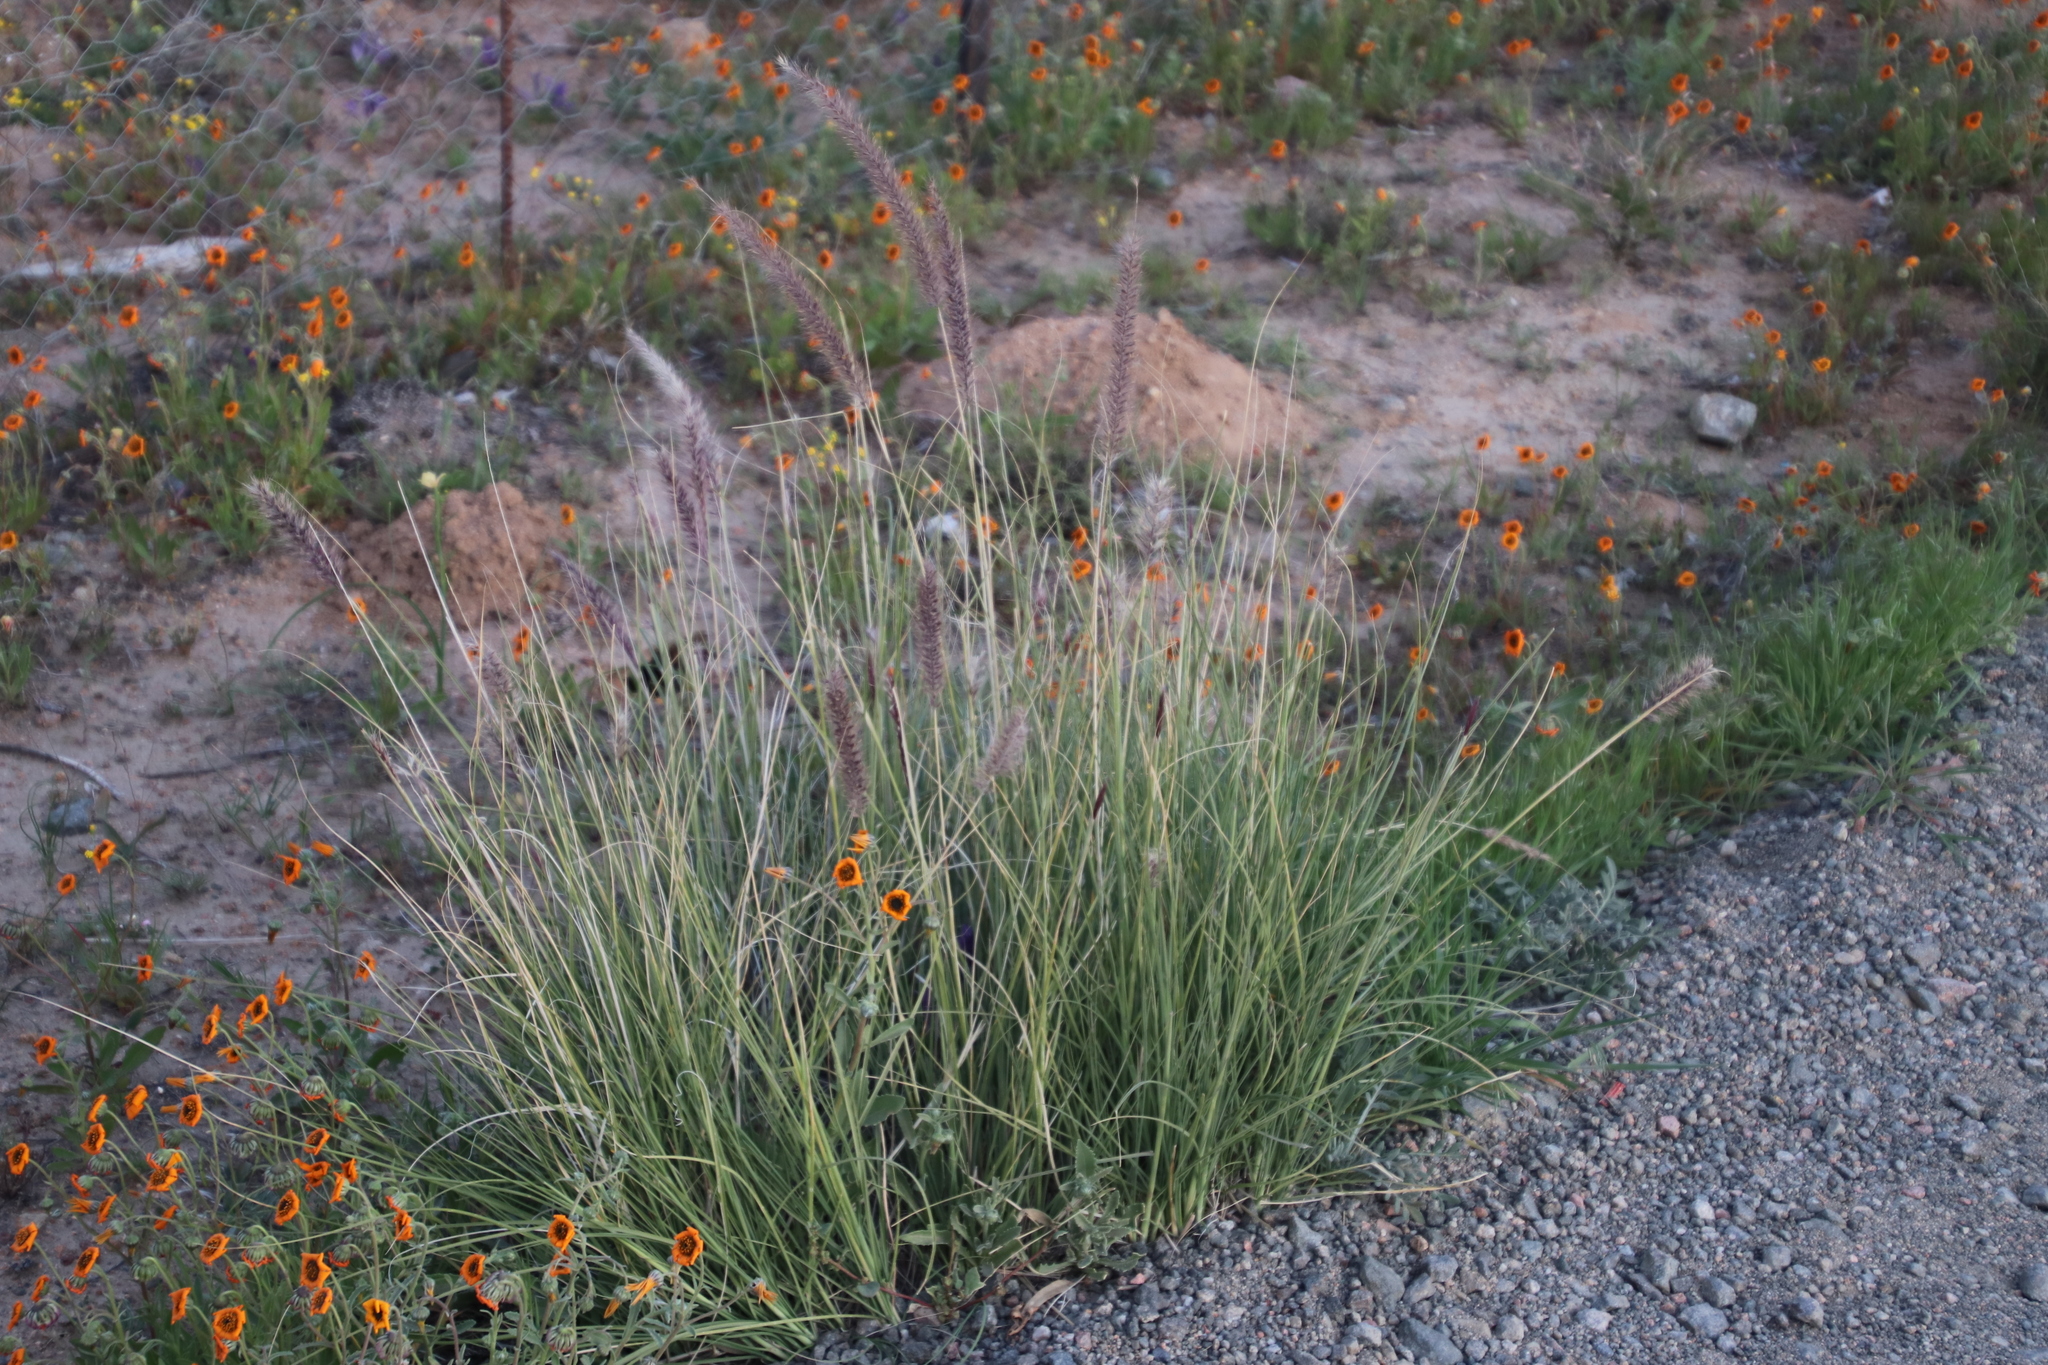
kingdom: Plantae
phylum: Tracheophyta
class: Liliopsida
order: Poales
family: Poaceae
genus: Cenchrus
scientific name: Cenchrus setaceus
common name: Crimson fountaingrass
